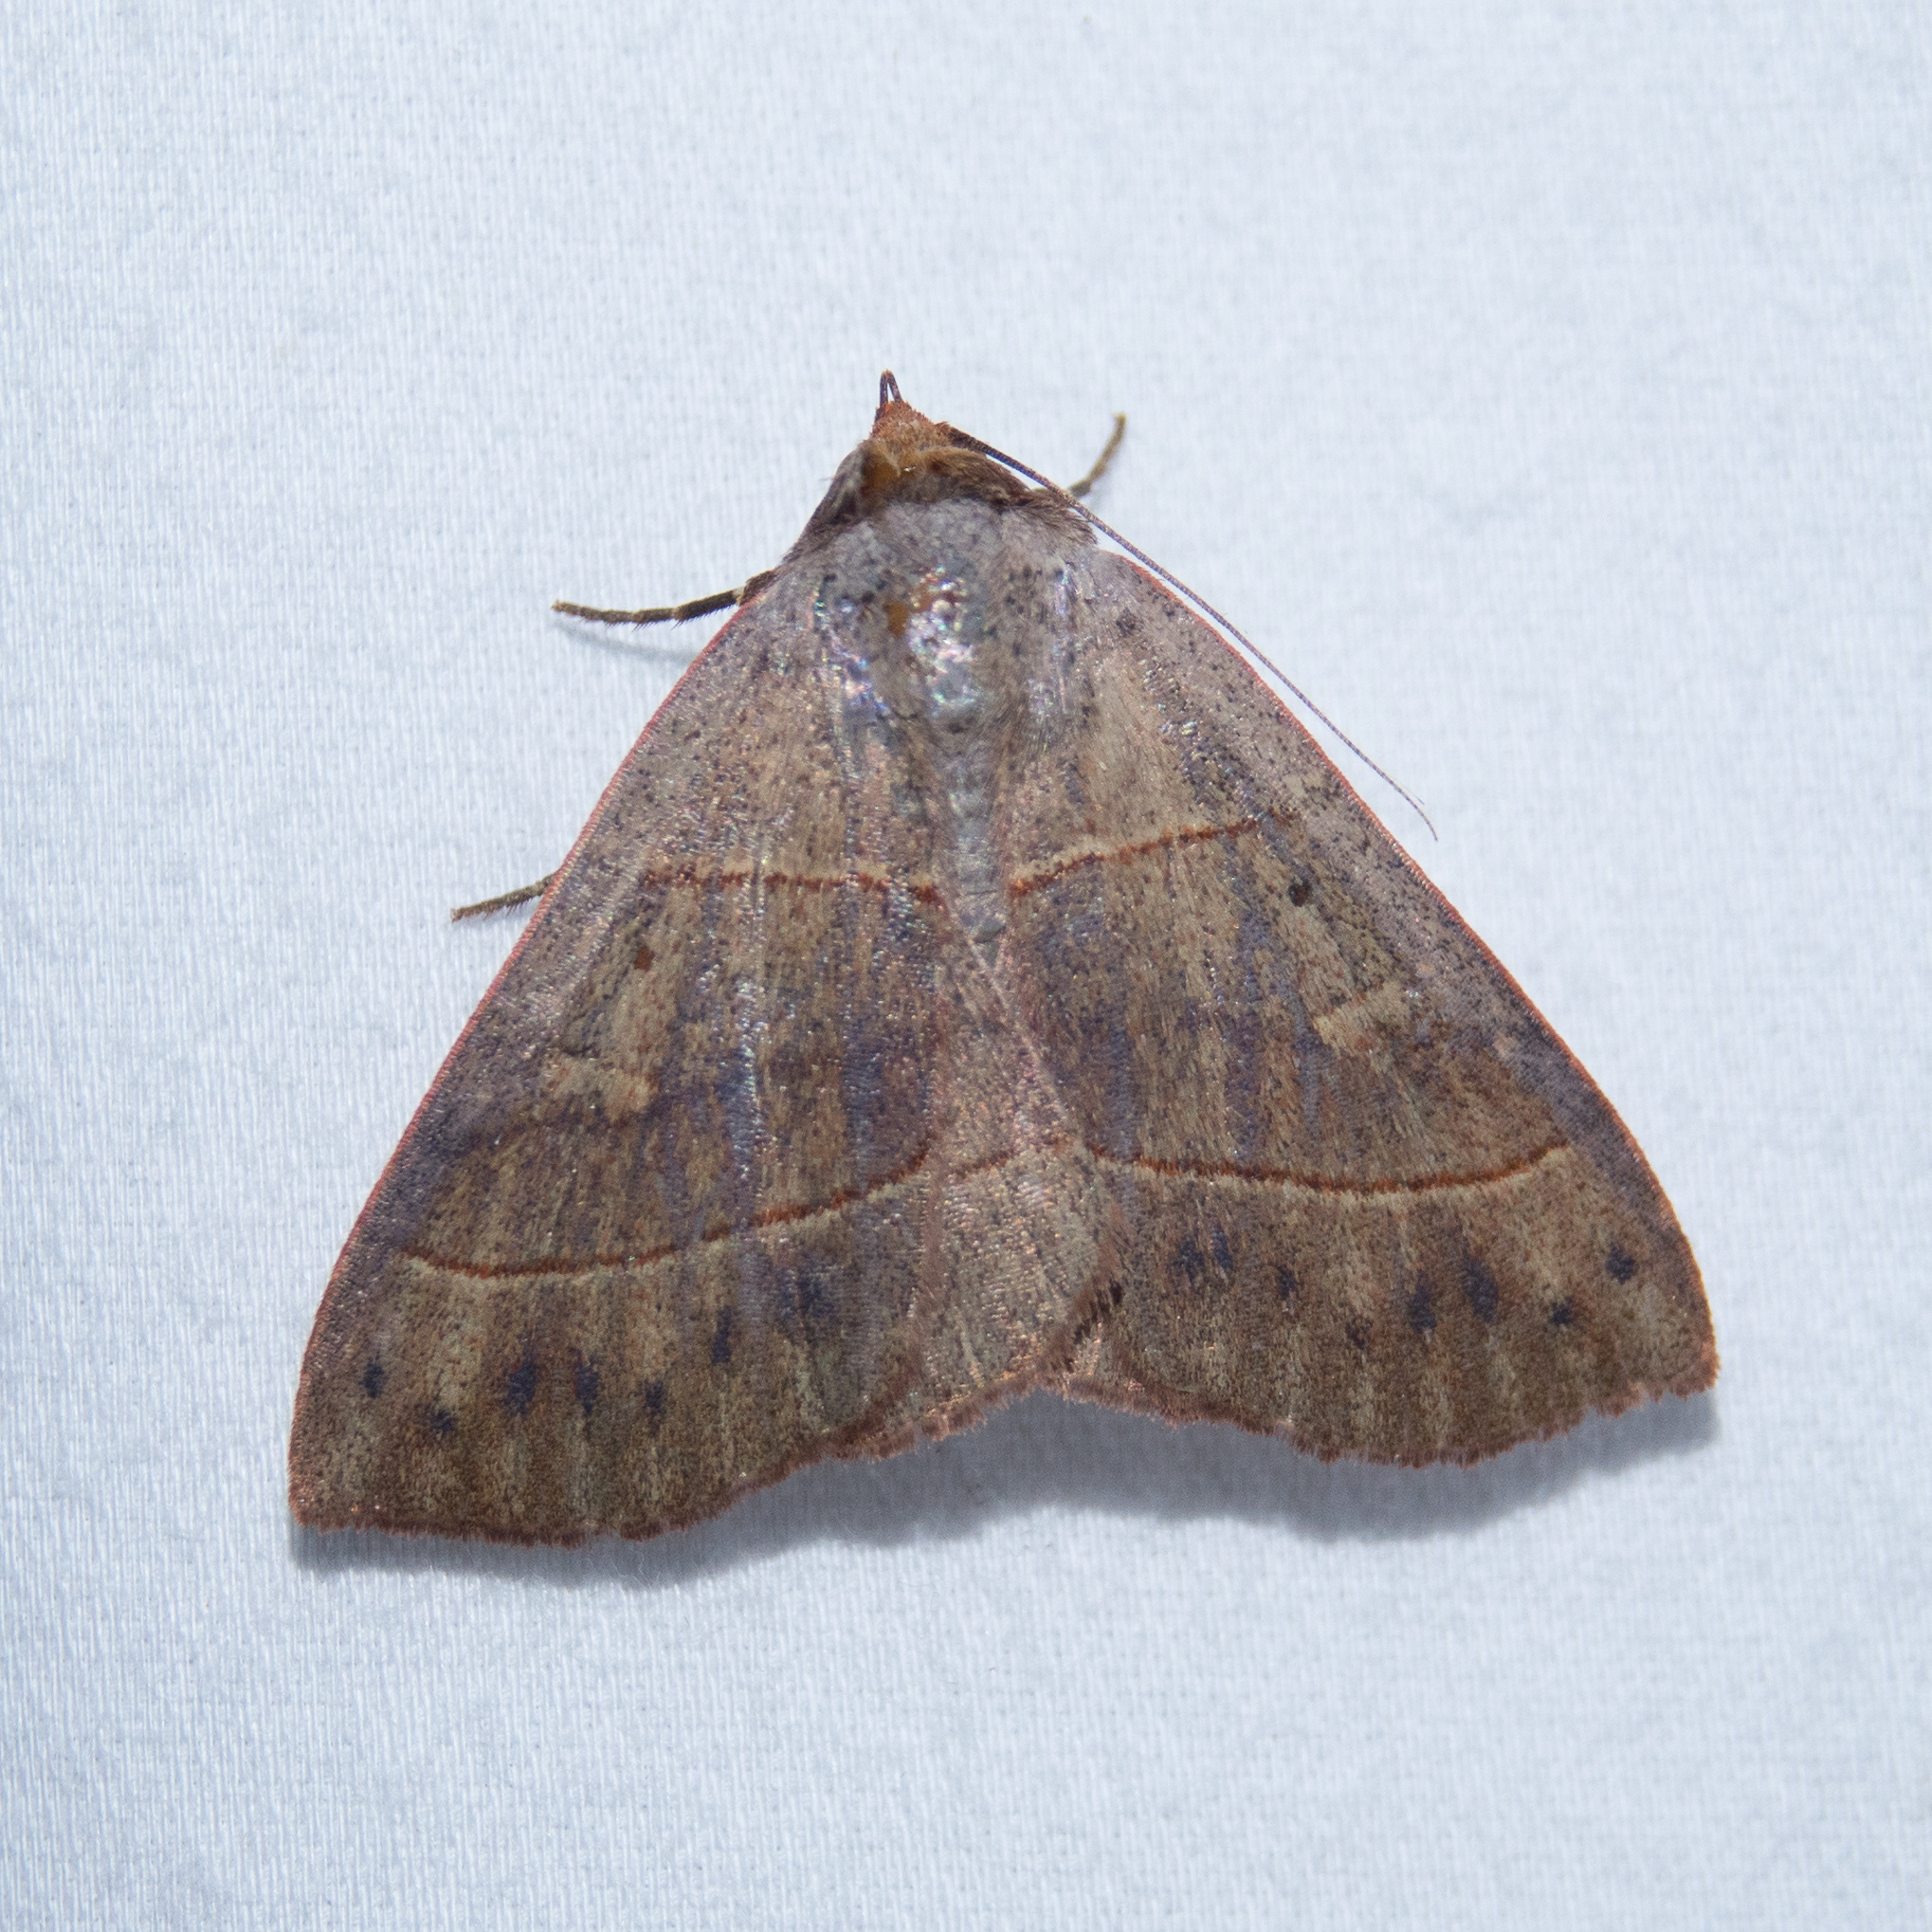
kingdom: Animalia
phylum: Arthropoda
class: Insecta
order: Lepidoptera
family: Erebidae
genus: Panopoda
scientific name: Panopoda rufimargo
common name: Red-lined panopoda moth
